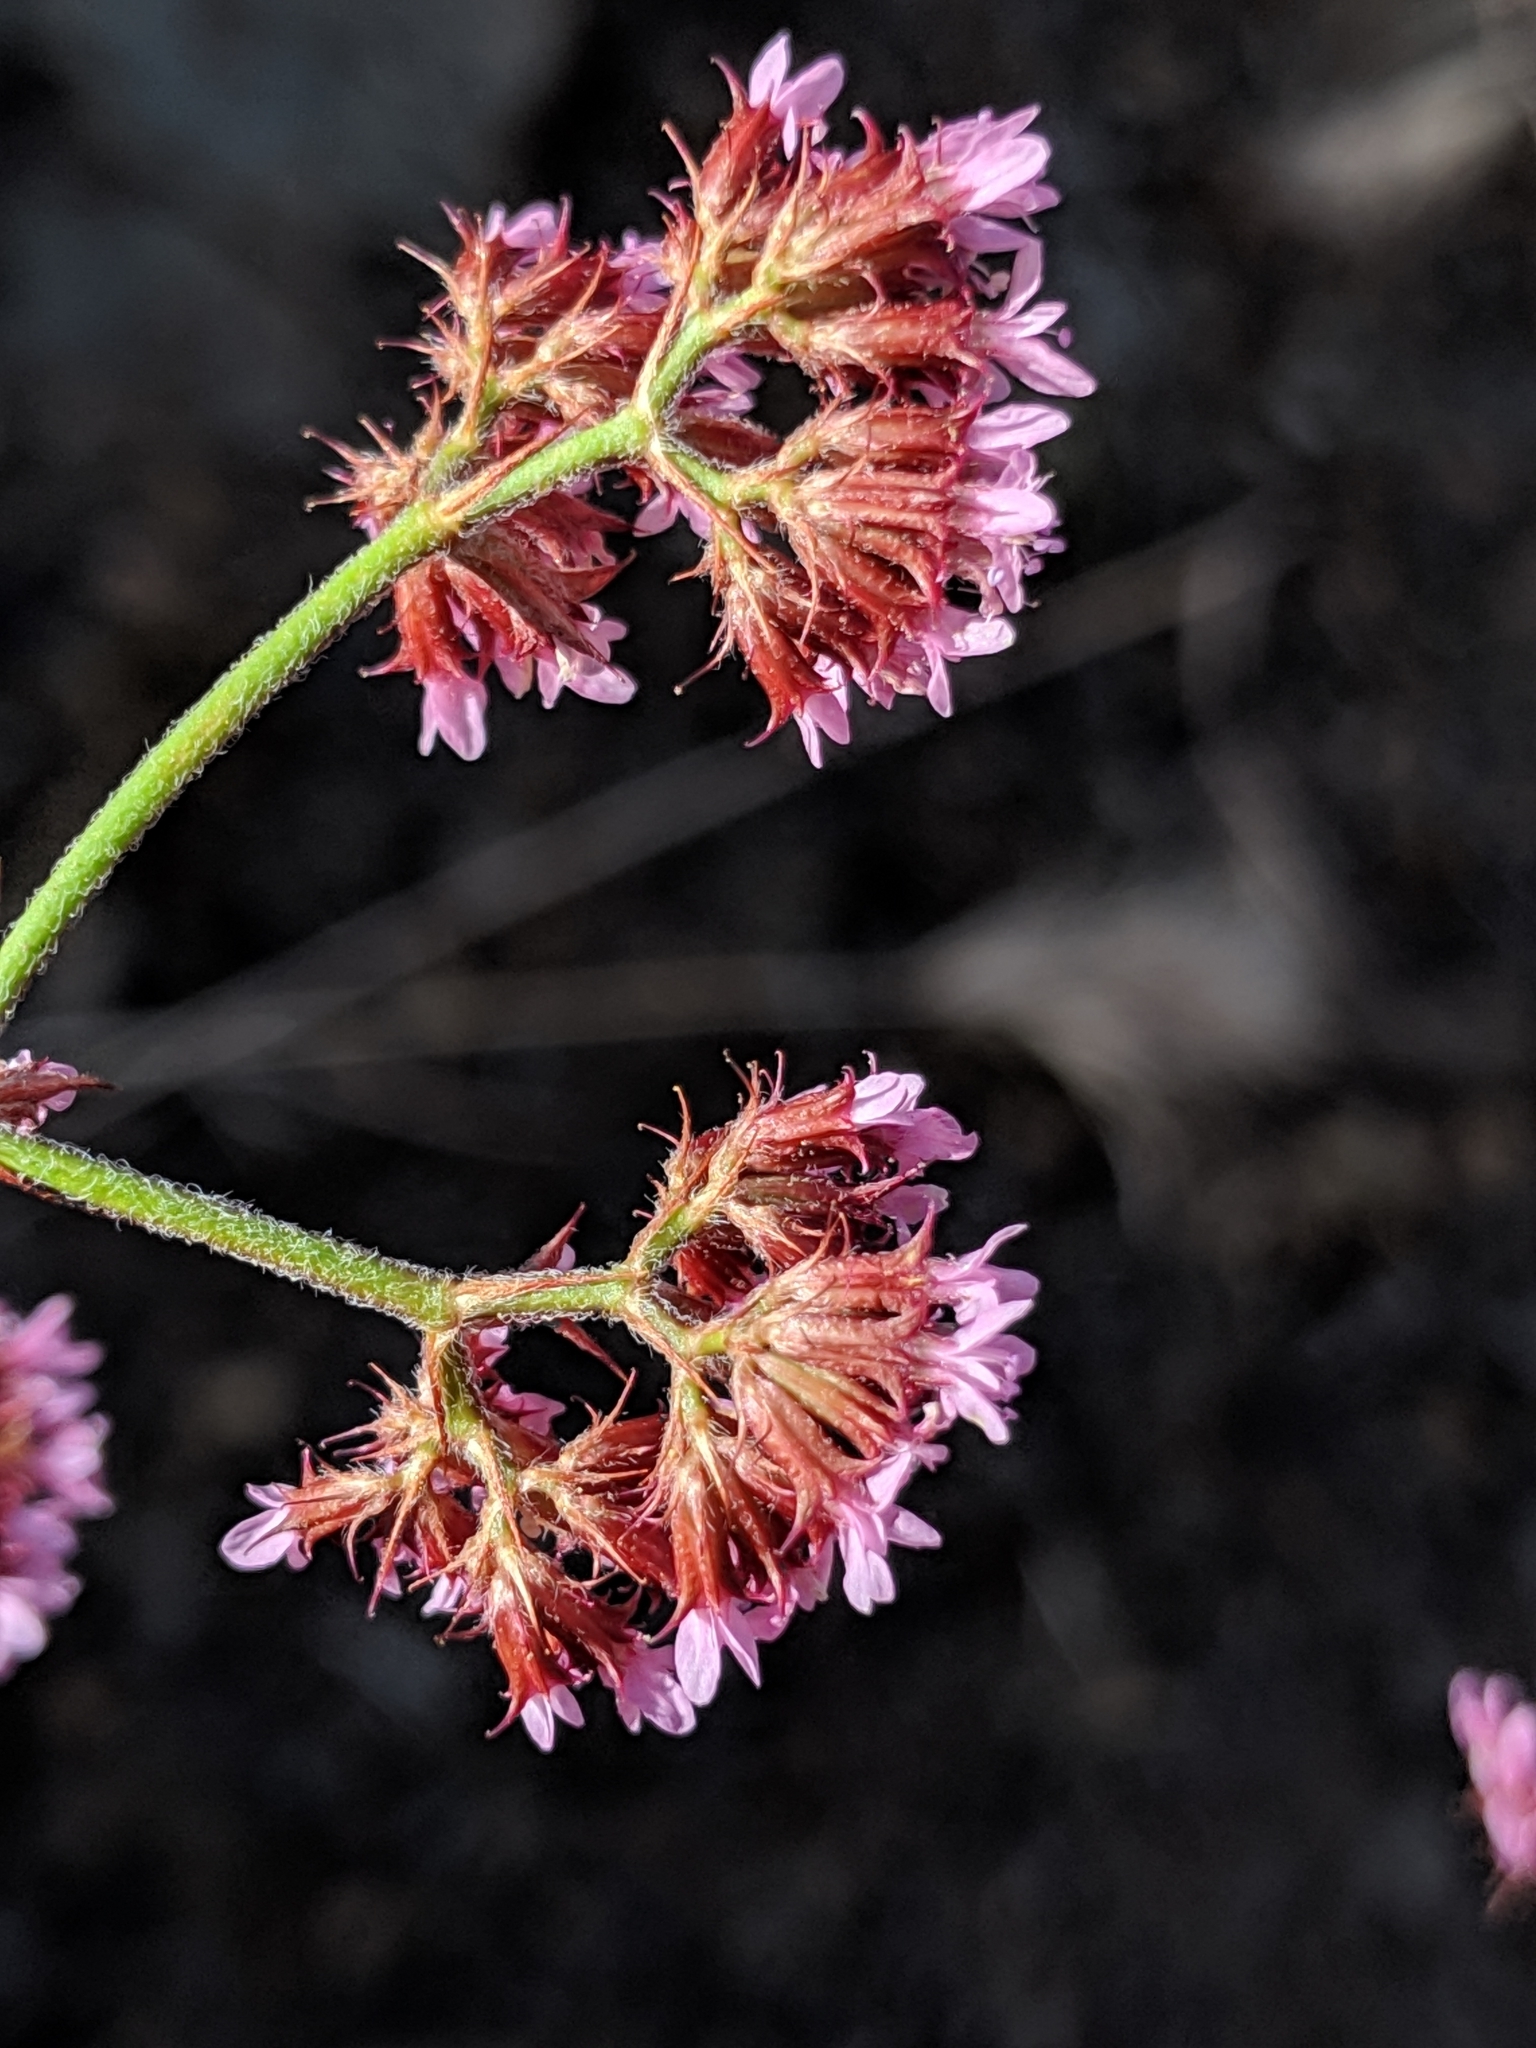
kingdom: Plantae
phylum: Tracheophyta
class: Magnoliopsida
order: Caryophyllales
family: Polygonaceae
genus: Chorizanthe
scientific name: Chorizanthe staticoides
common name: Turkish rugging
